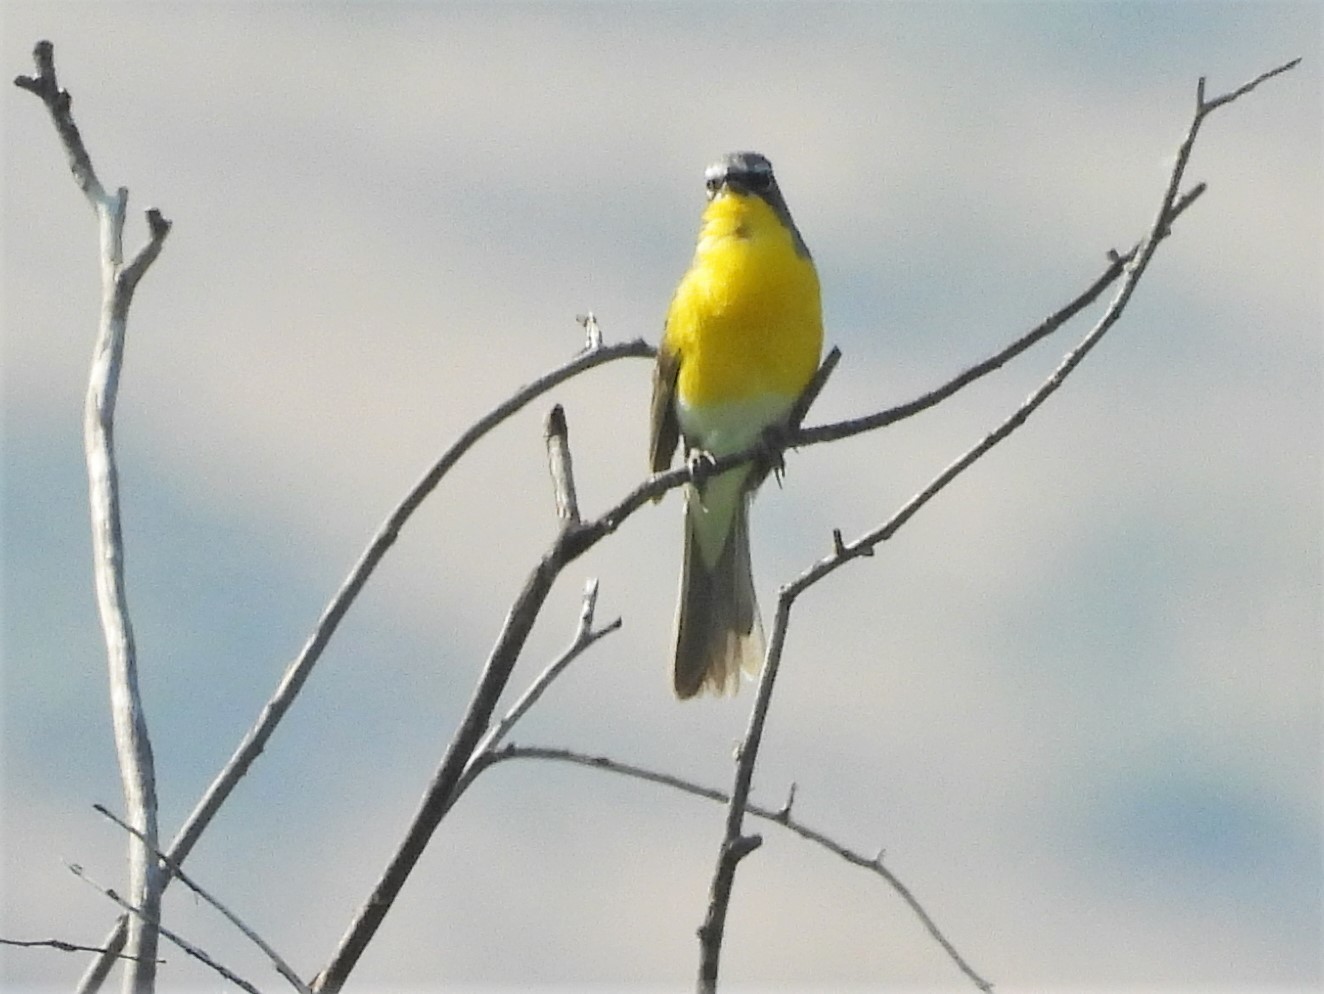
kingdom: Animalia
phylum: Chordata
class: Aves
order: Passeriformes
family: Parulidae
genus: Icteria
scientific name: Icteria virens
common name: Yellow-breasted chat
